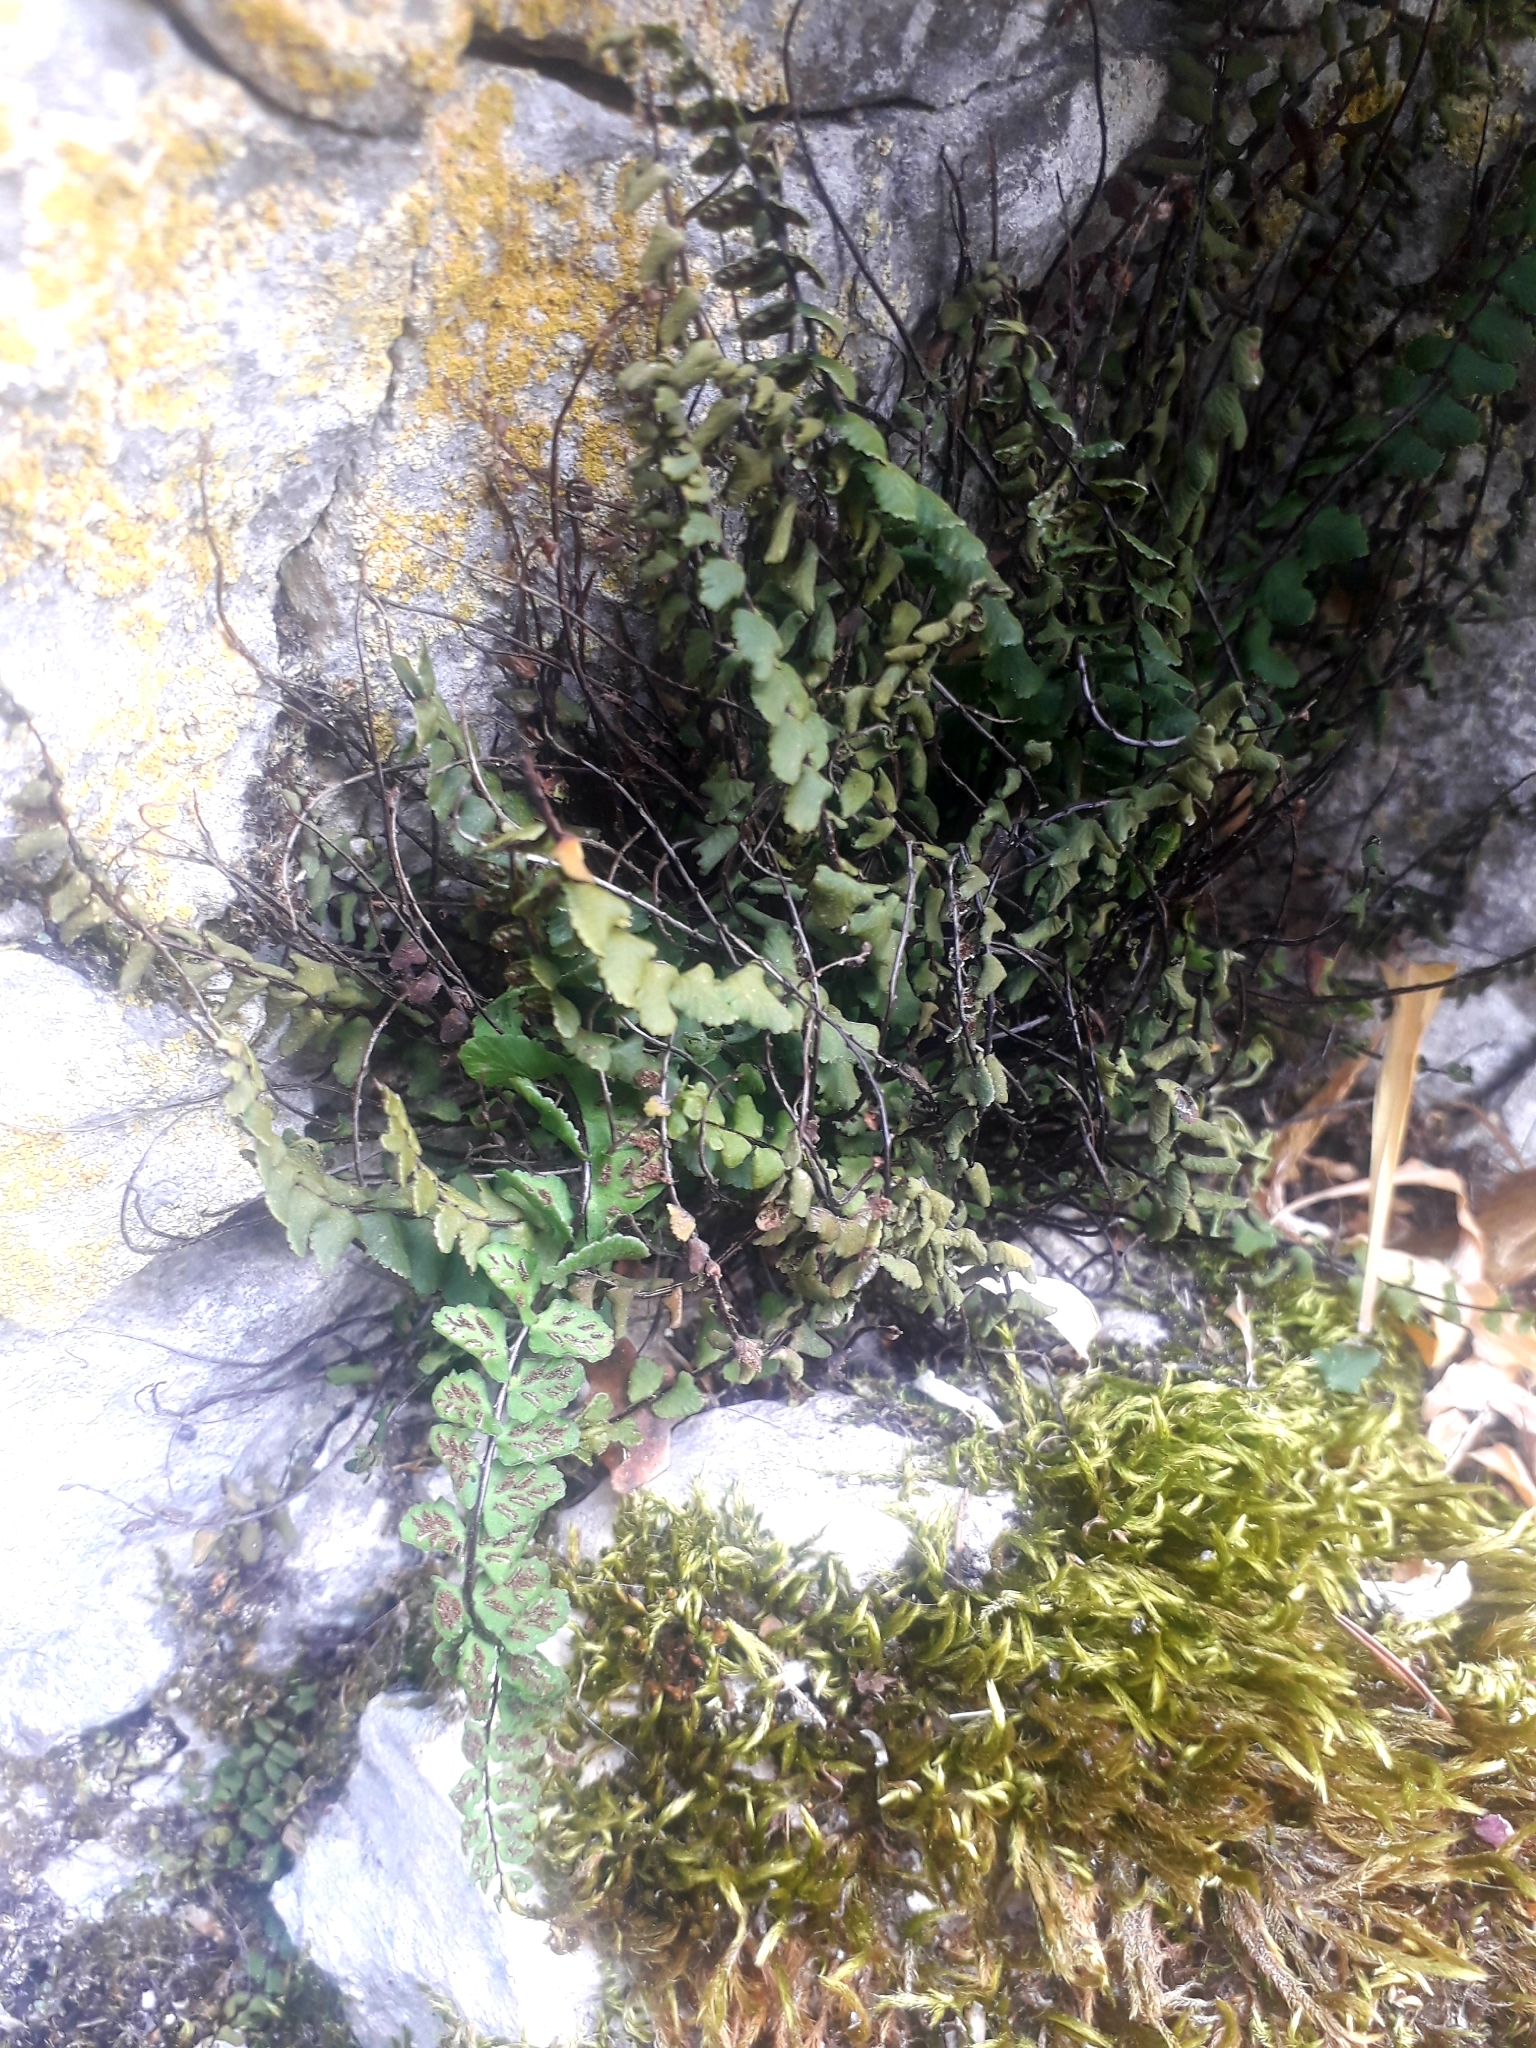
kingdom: Plantae
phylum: Tracheophyta
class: Polypodiopsida
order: Polypodiales
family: Aspleniaceae
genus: Asplenium
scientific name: Asplenium trichomanes
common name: Maidenhair spleenwort
